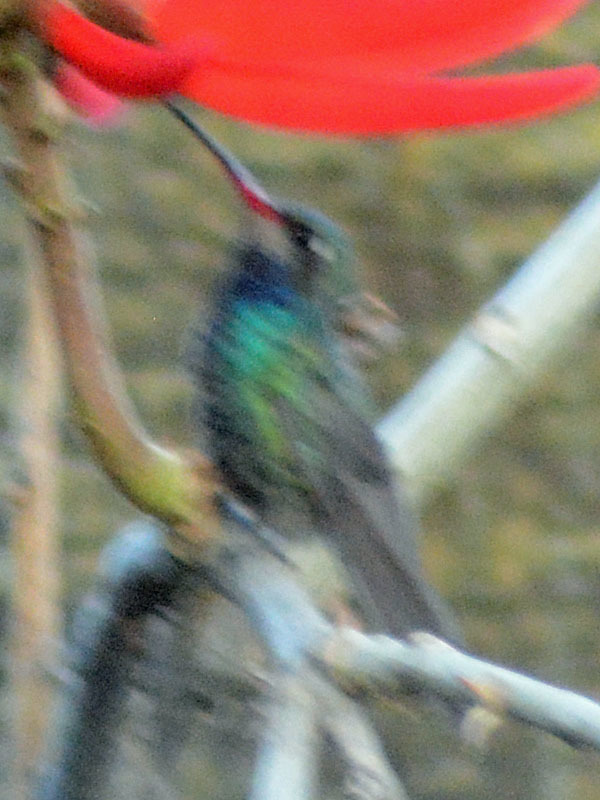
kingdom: Animalia
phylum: Chordata
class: Aves
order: Apodiformes
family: Trochilidae
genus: Cynanthus
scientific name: Cynanthus latirostris
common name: Broad-billed hummingbird
